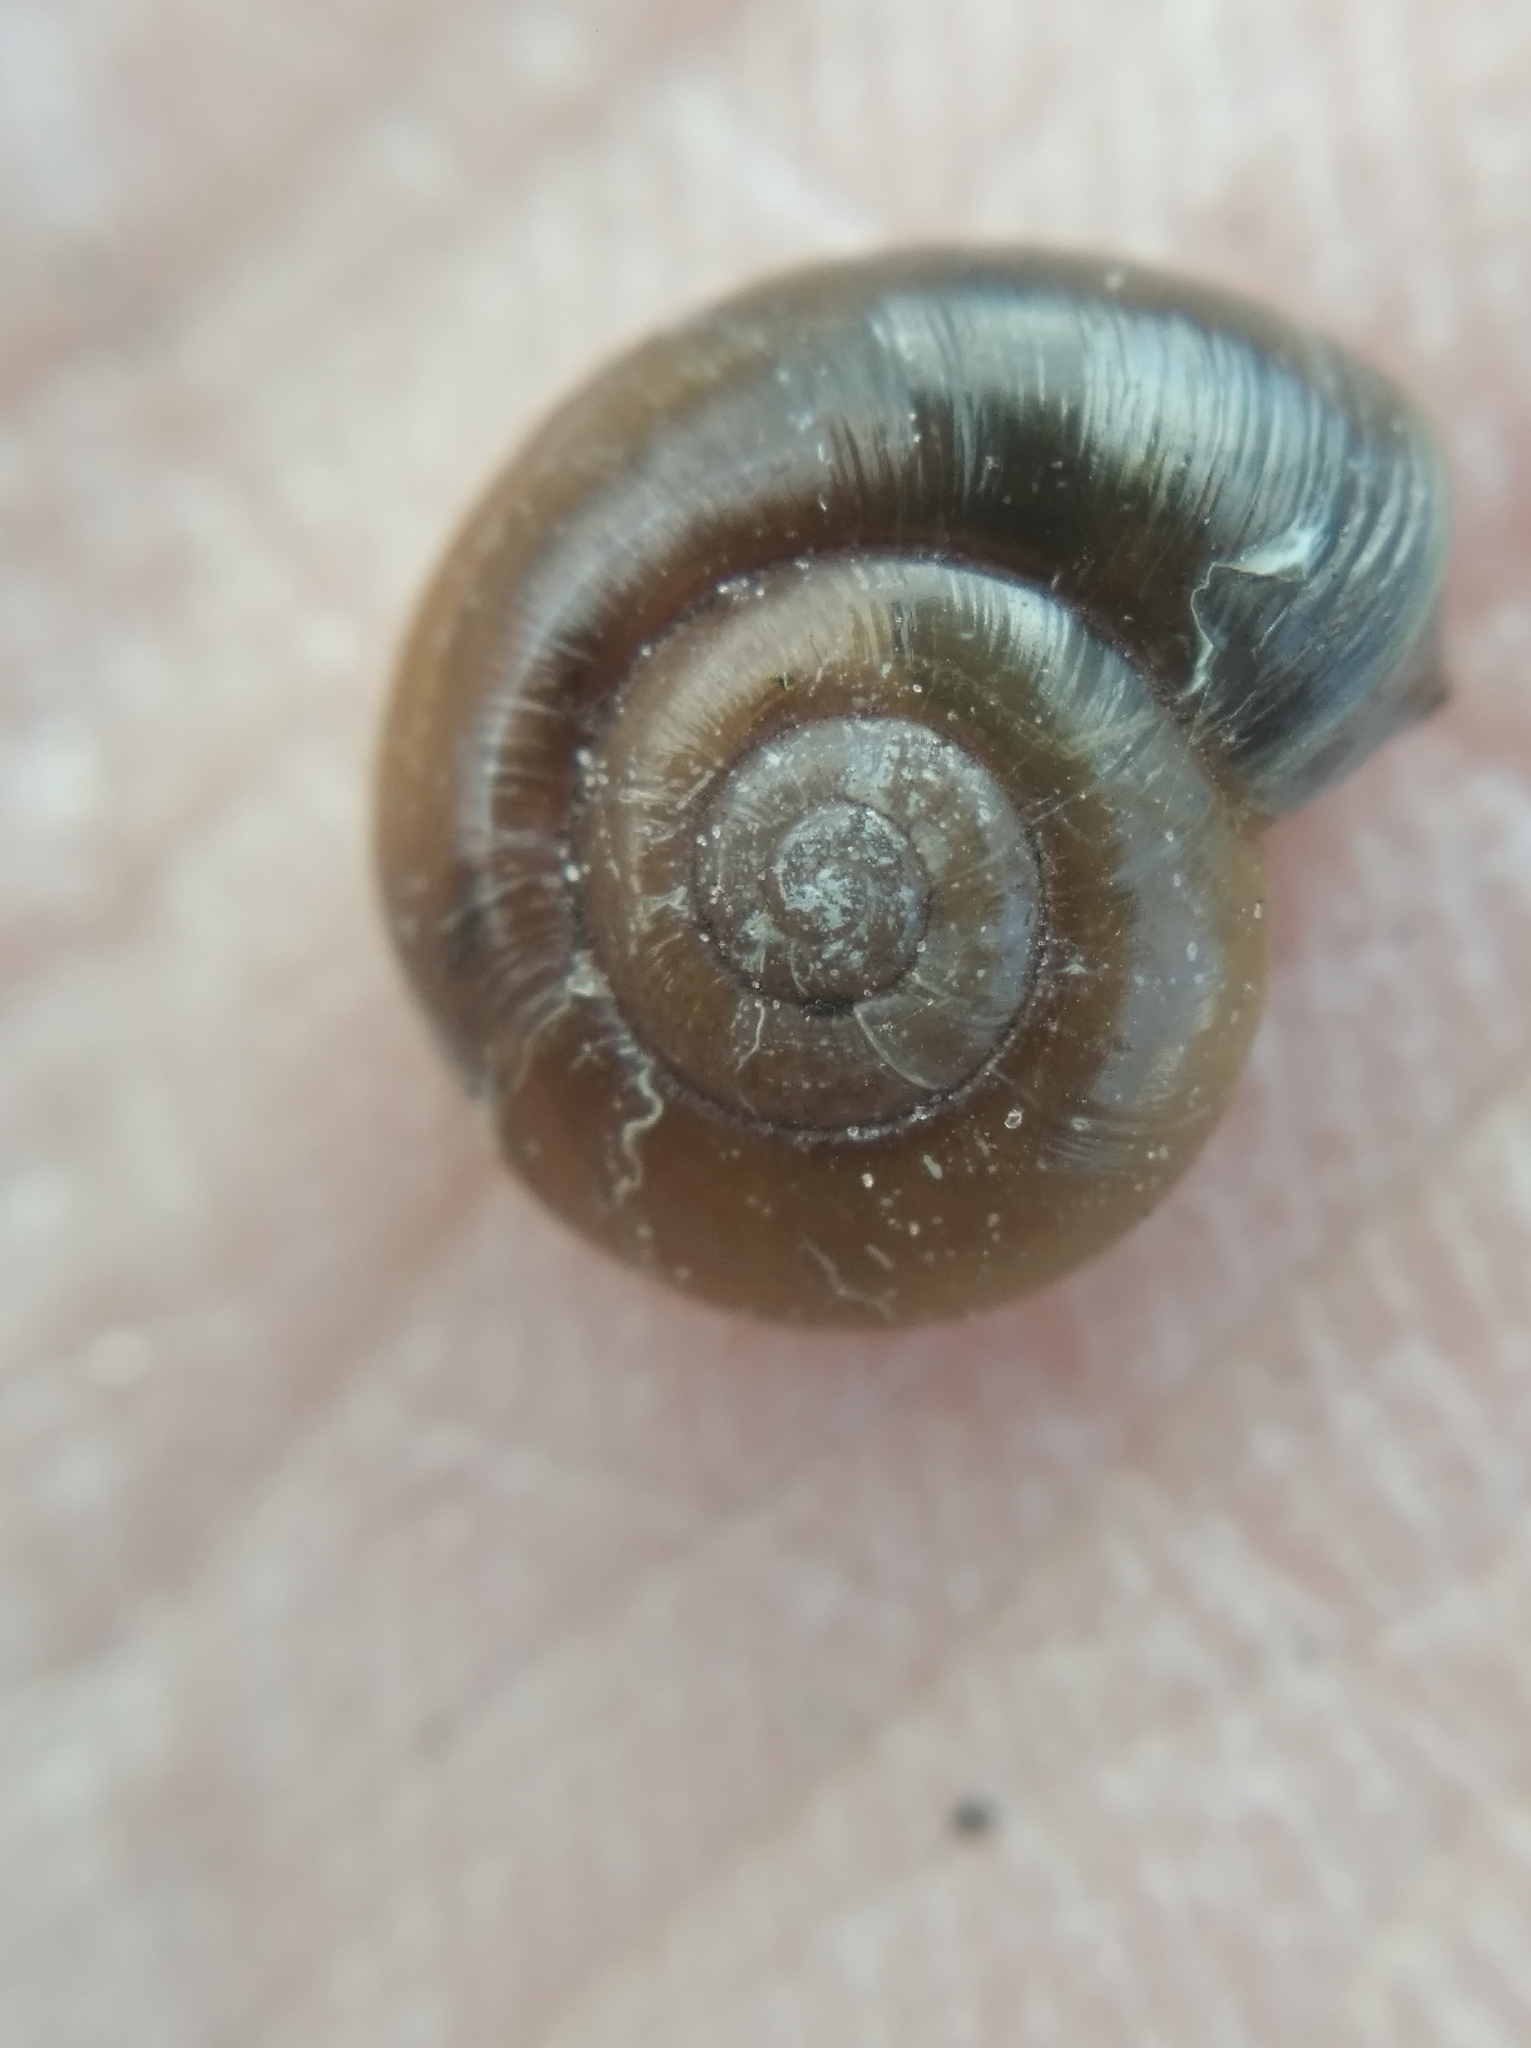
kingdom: Animalia
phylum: Mollusca
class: Gastropoda
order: Stylommatophora
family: Gastrodontidae
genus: Aegopinella
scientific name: Aegopinella minor
